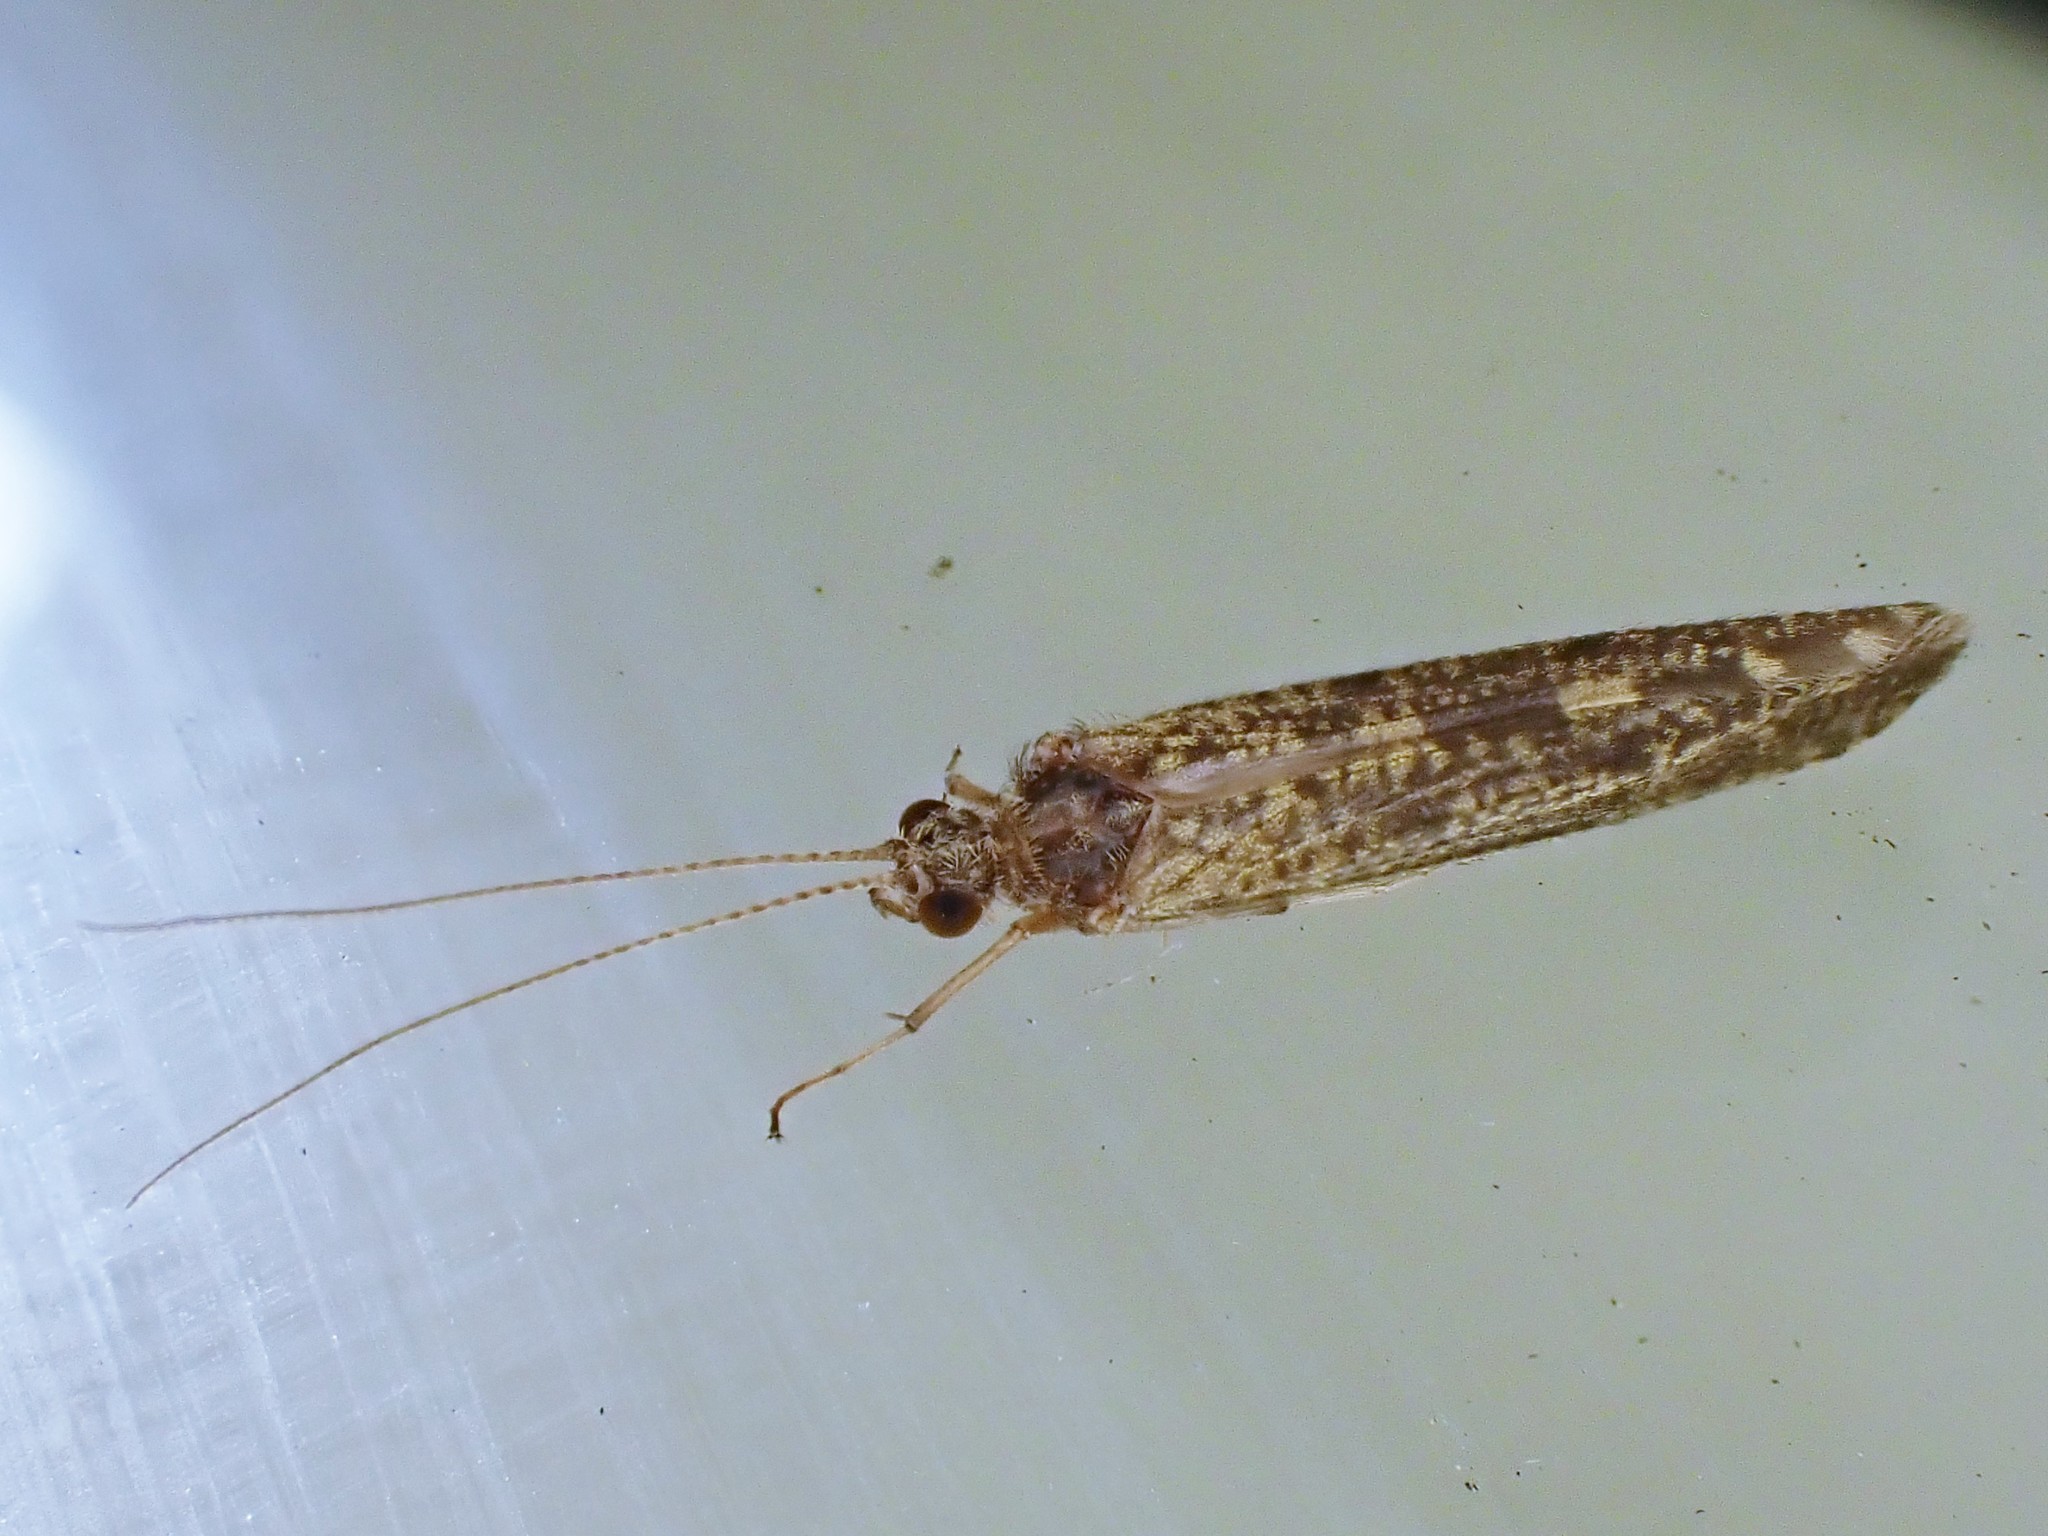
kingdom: Animalia
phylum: Arthropoda
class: Insecta
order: Trichoptera
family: Hydropsychidae
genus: Hydropsyche
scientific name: Hydropsyche
